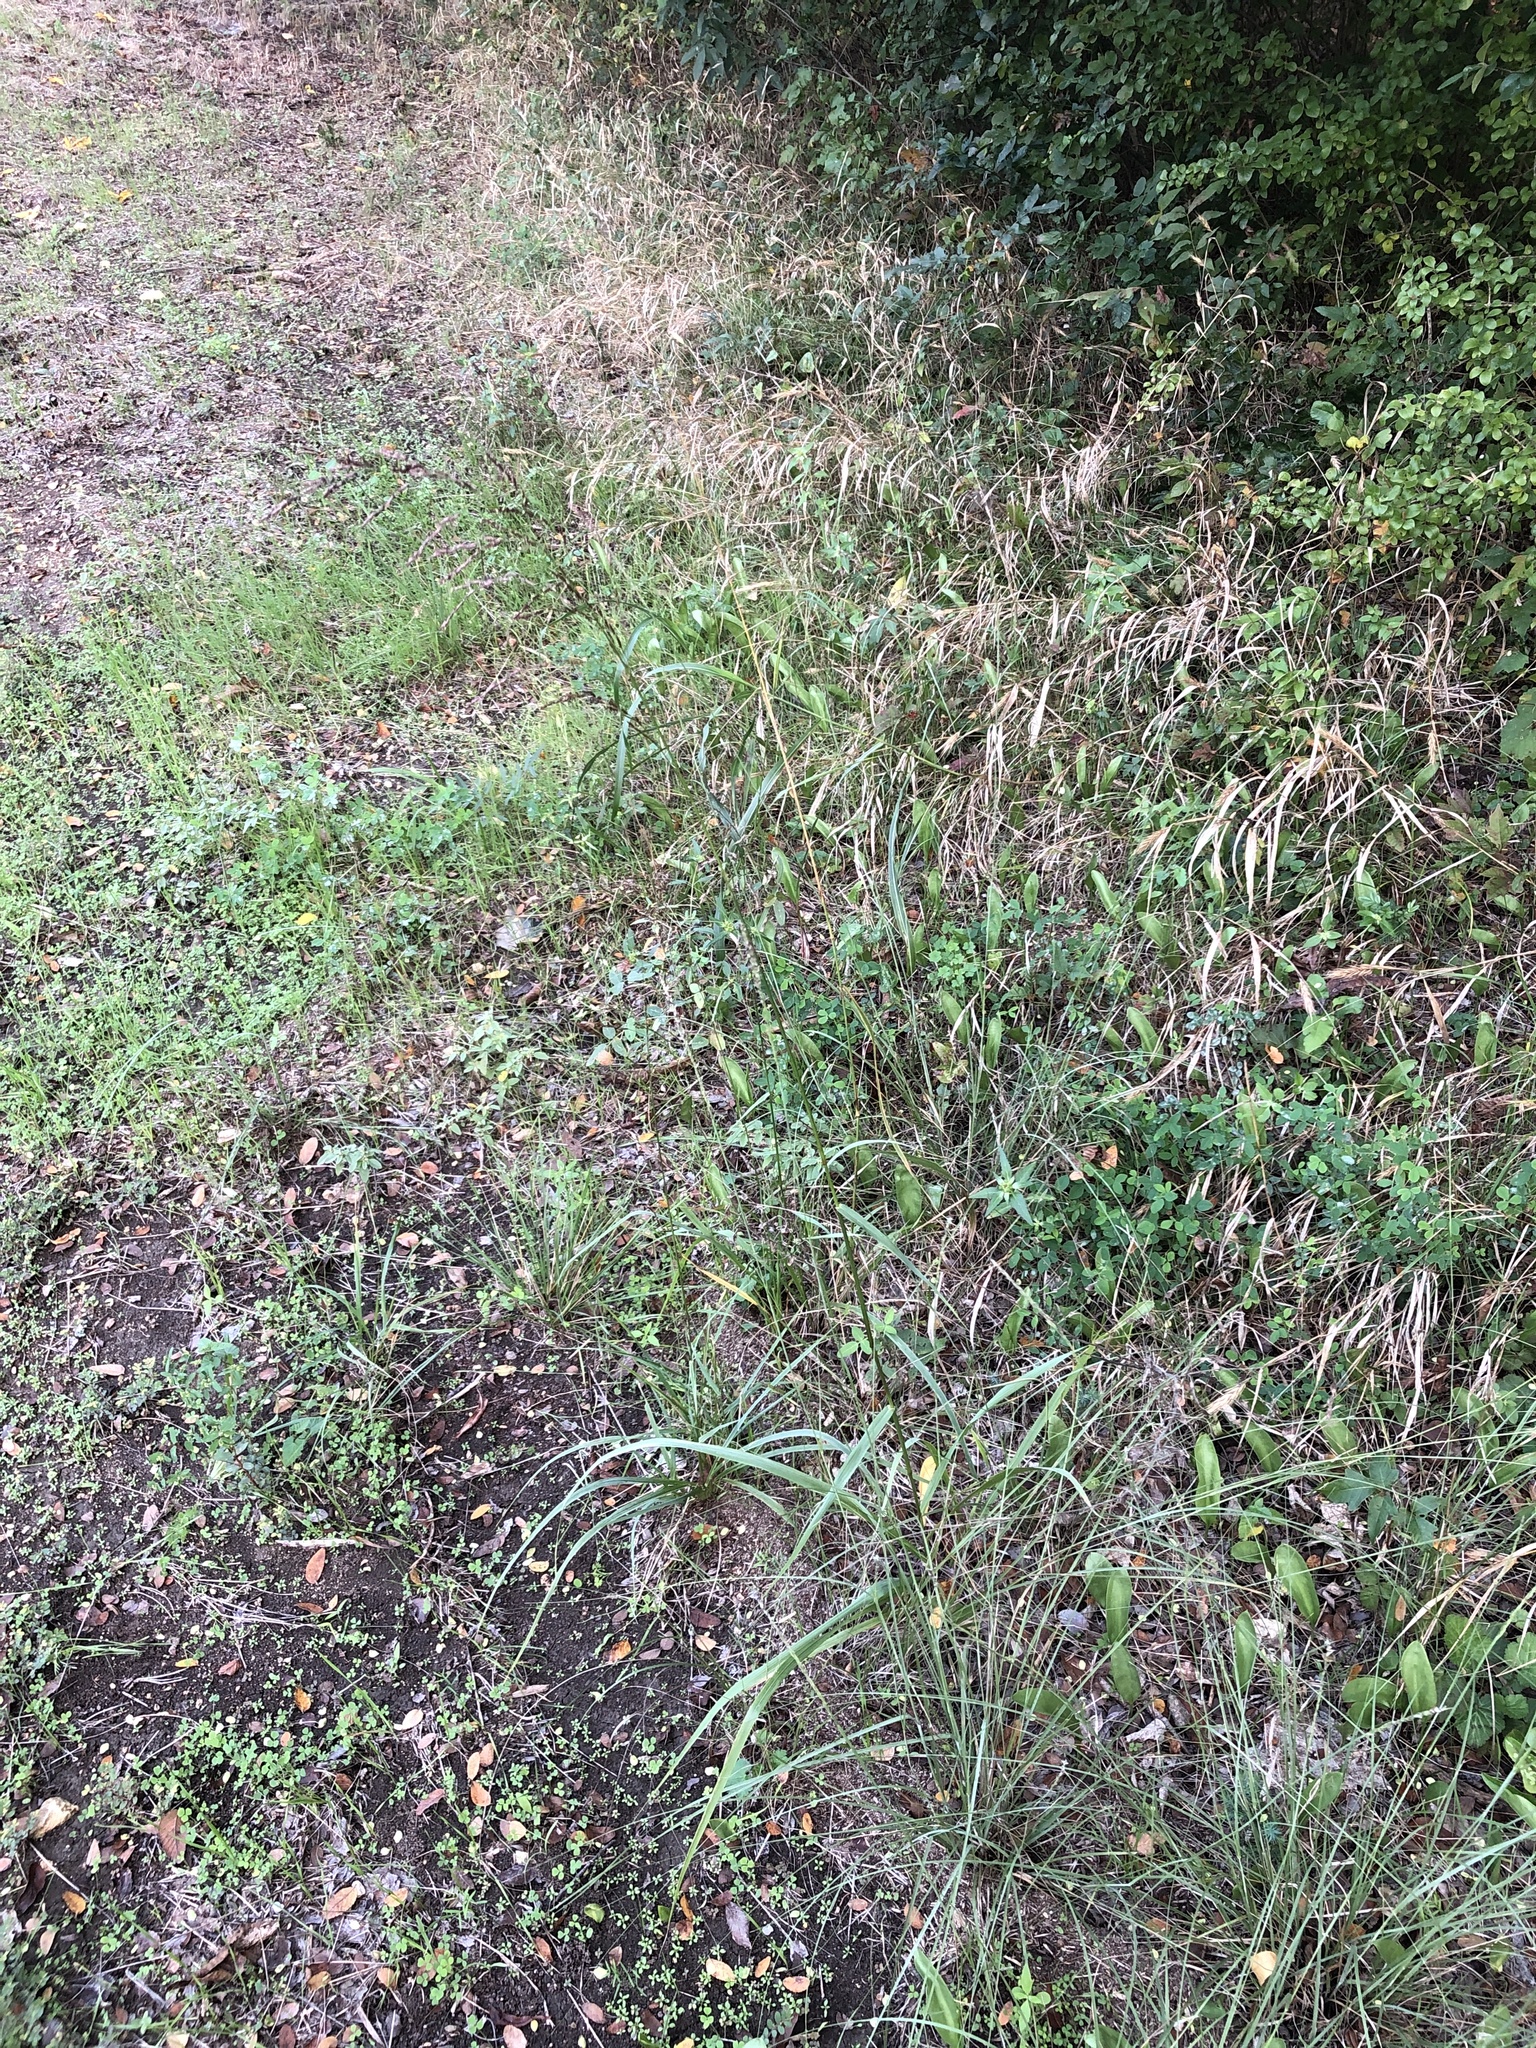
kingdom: Plantae
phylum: Tracheophyta
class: Liliopsida
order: Poales
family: Poaceae
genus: Tridens
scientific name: Tridens flavus
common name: Purpletop
